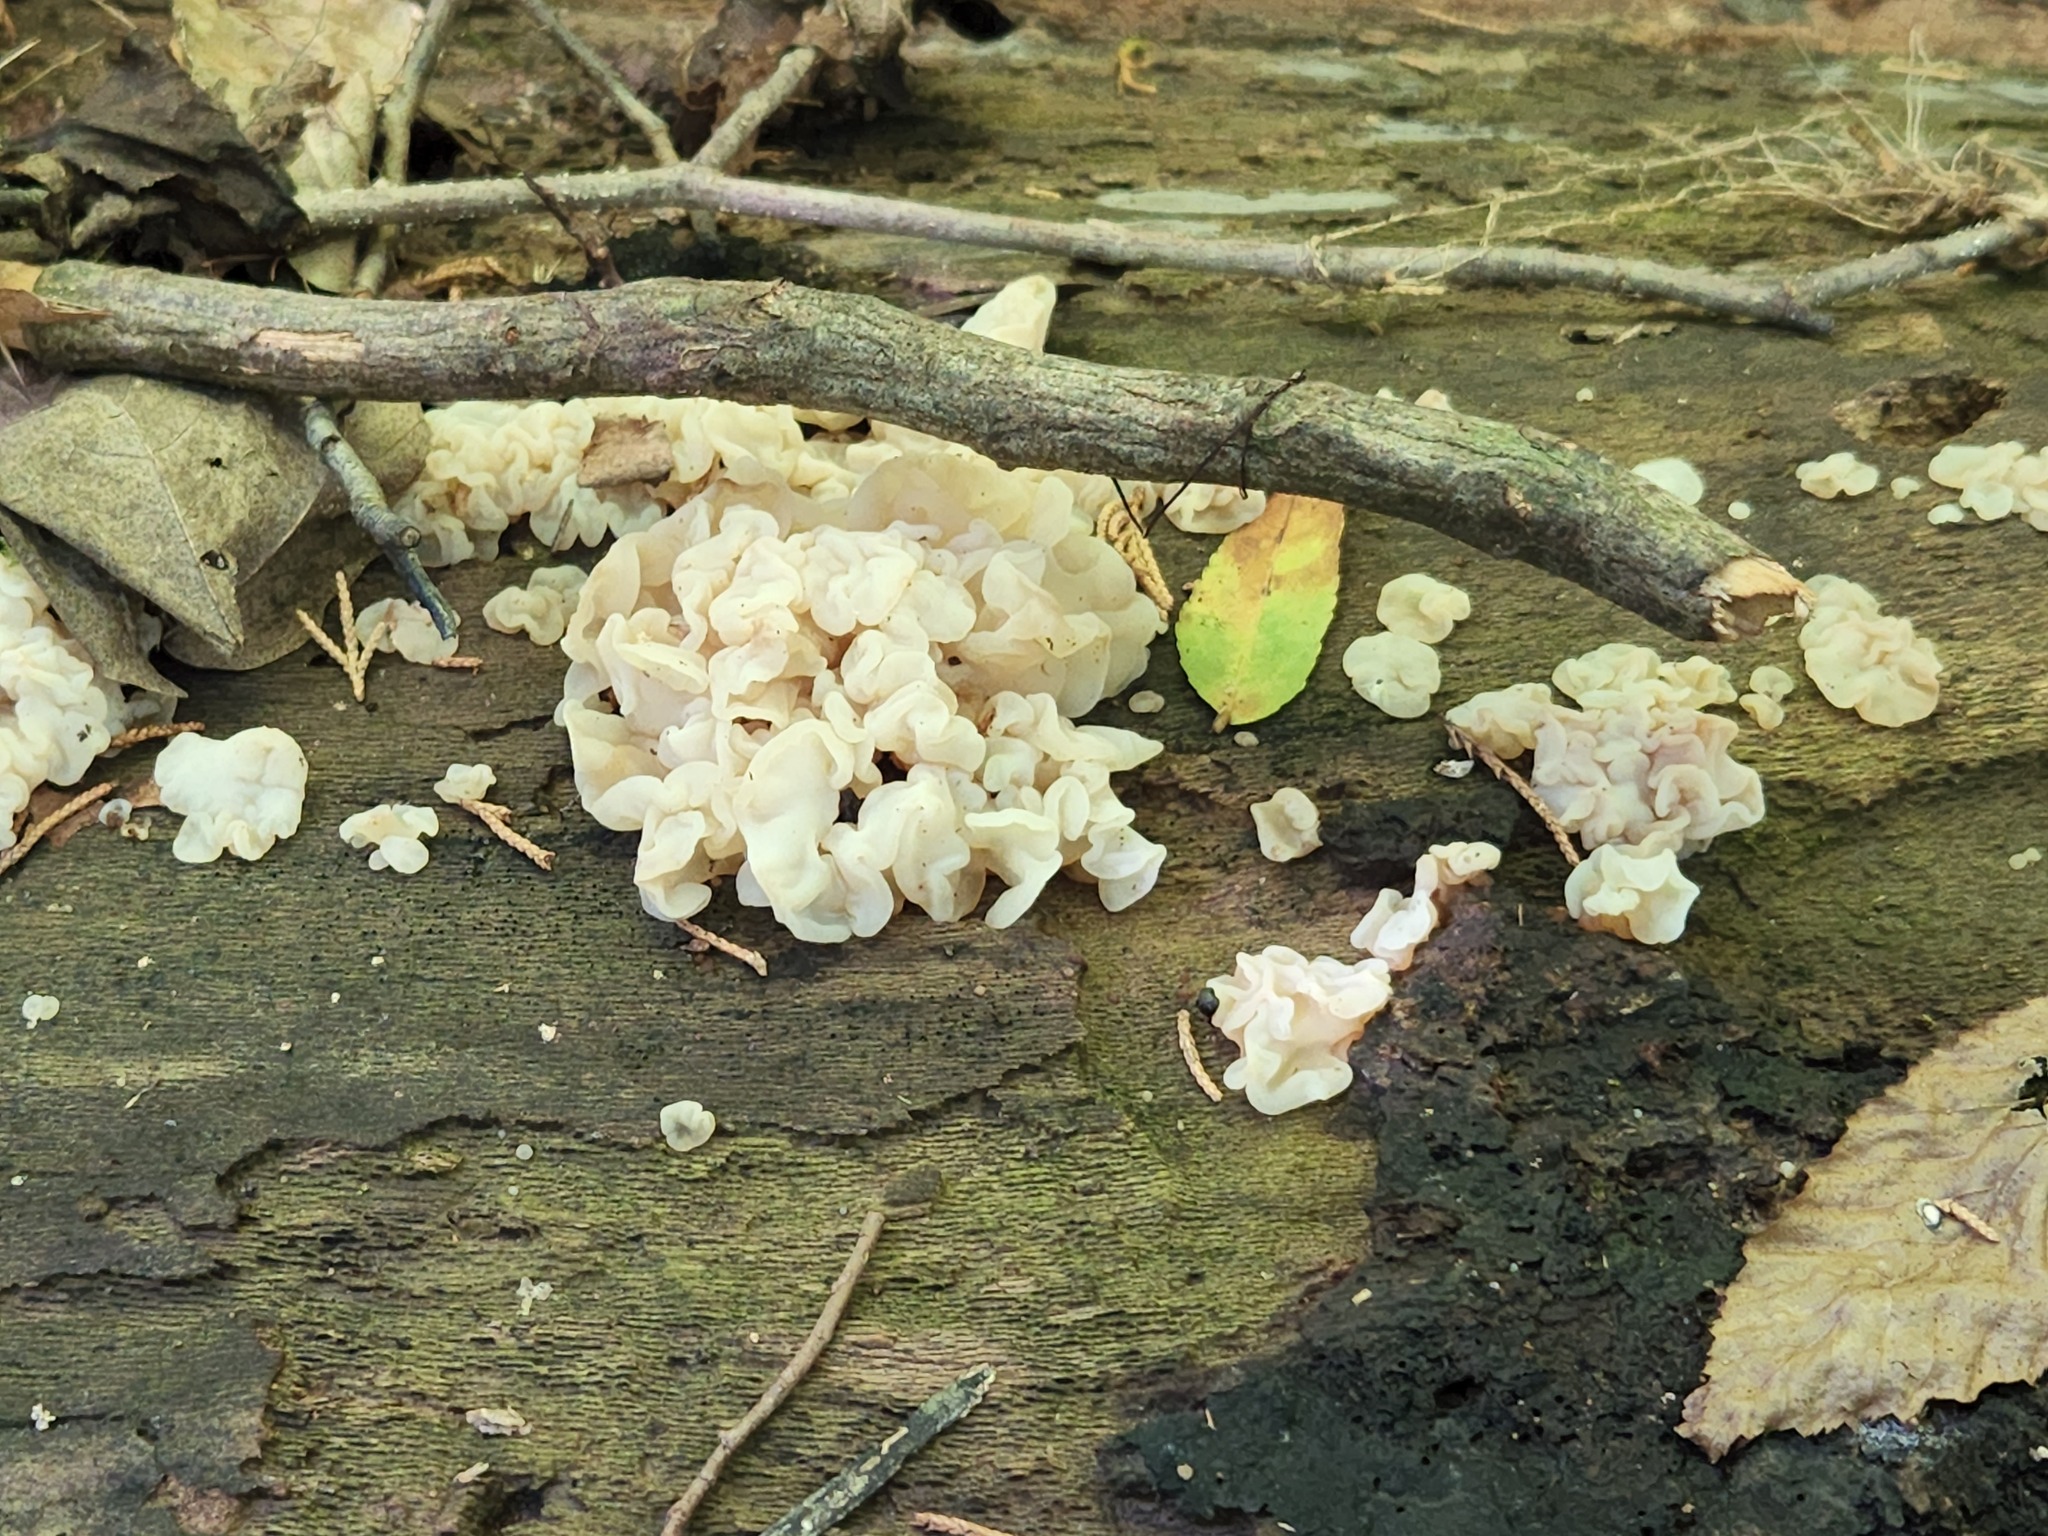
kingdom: Fungi
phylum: Basidiomycota
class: Agaricomycetes
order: Auriculariales
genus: Ductifera
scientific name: Ductifera pululahuana
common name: White jelly fungus
